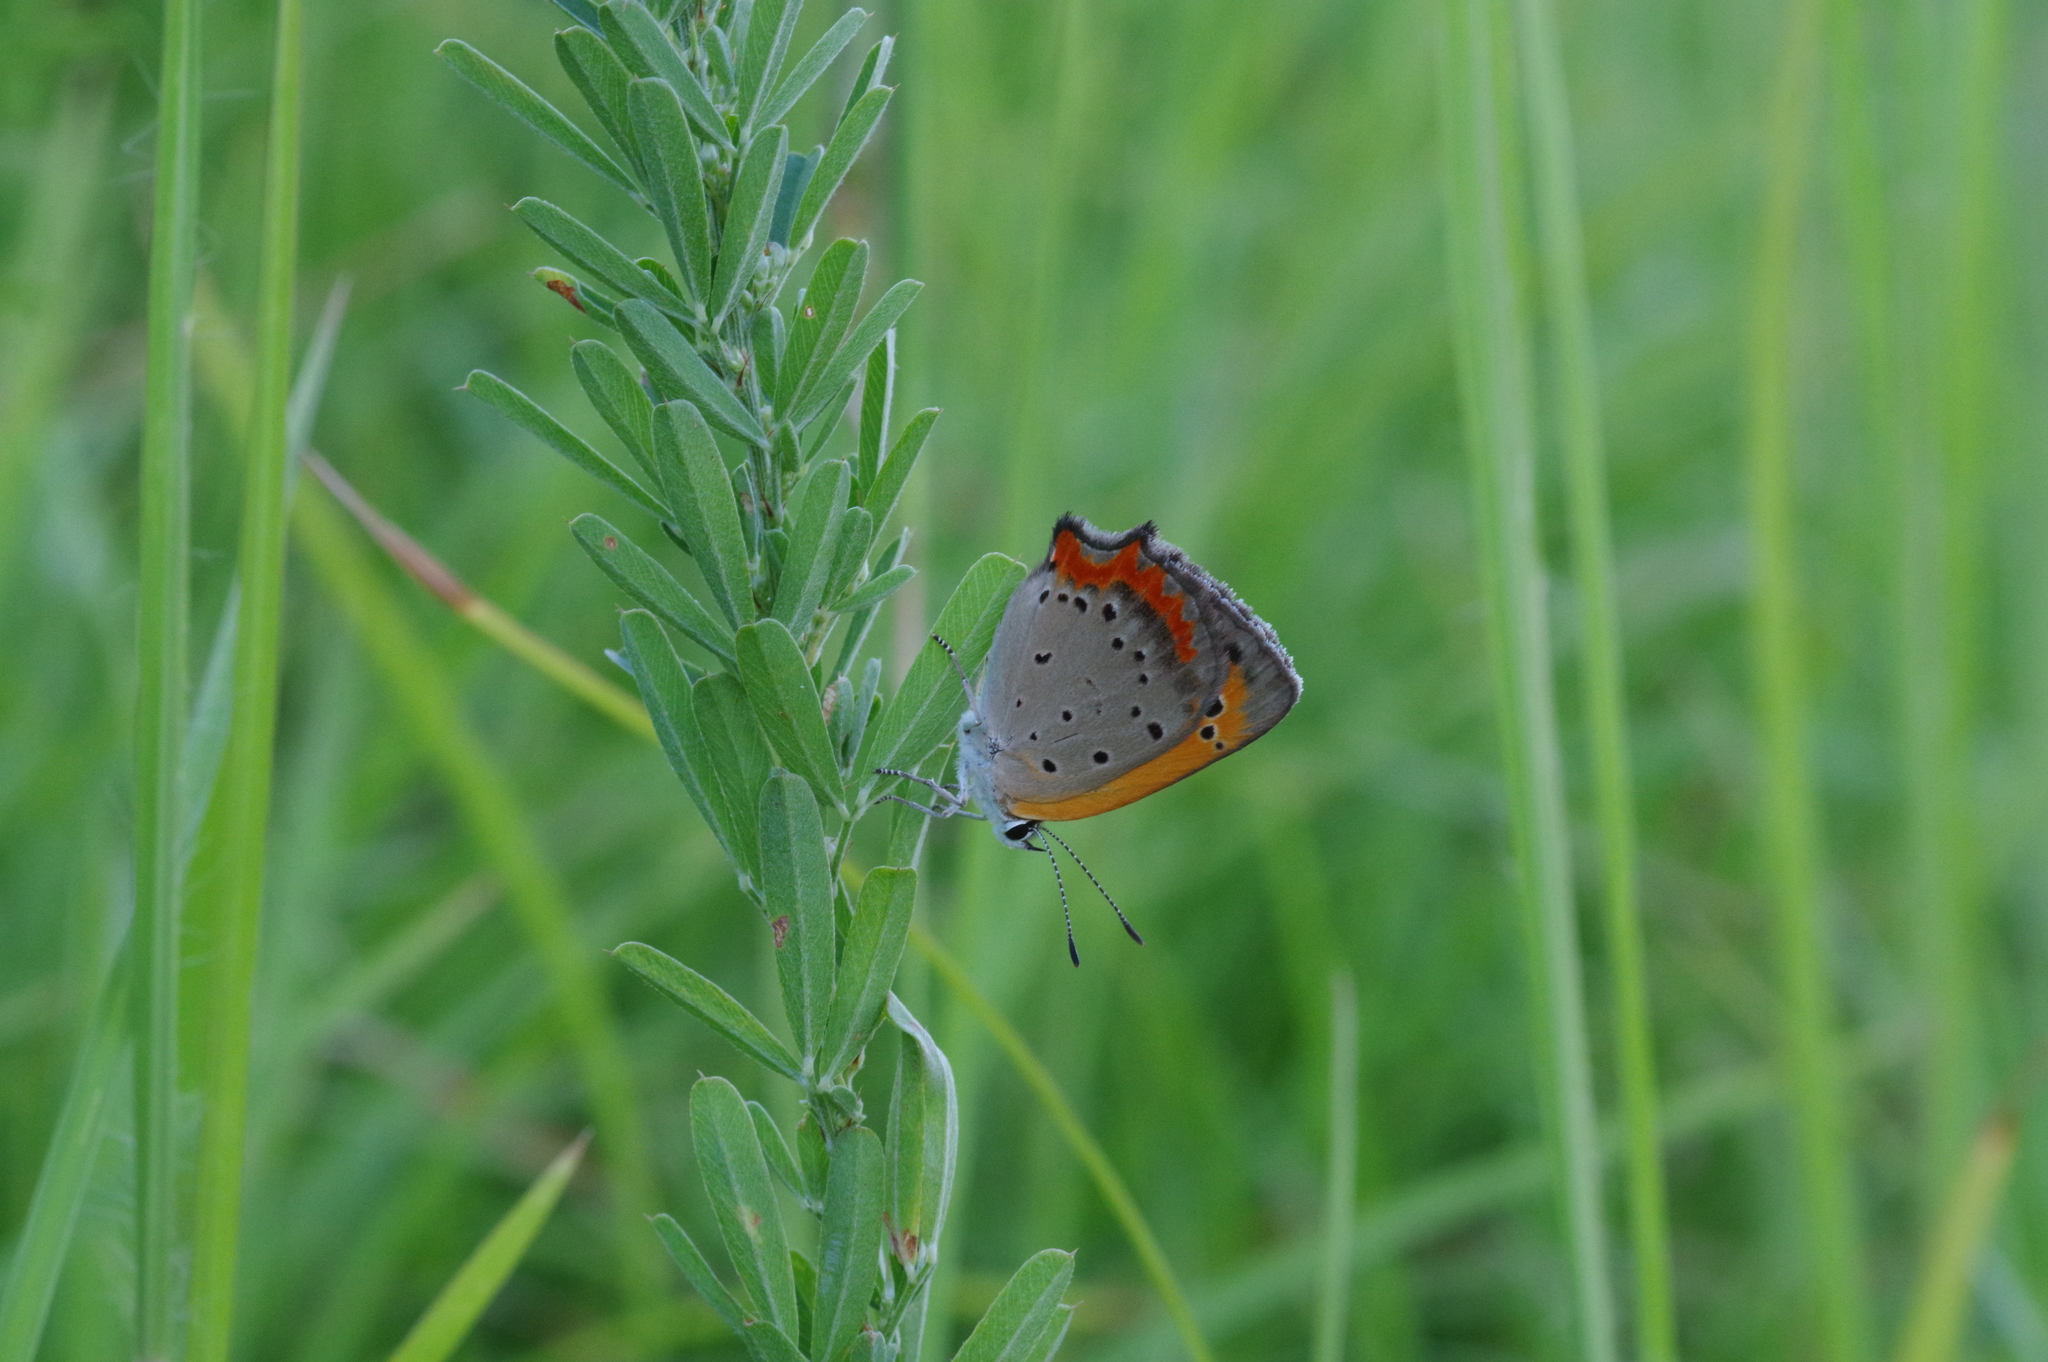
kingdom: Animalia
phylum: Arthropoda
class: Insecta
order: Lepidoptera
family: Lycaenidae
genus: Lycaena
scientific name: Lycaena phlaeas
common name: Small copper
